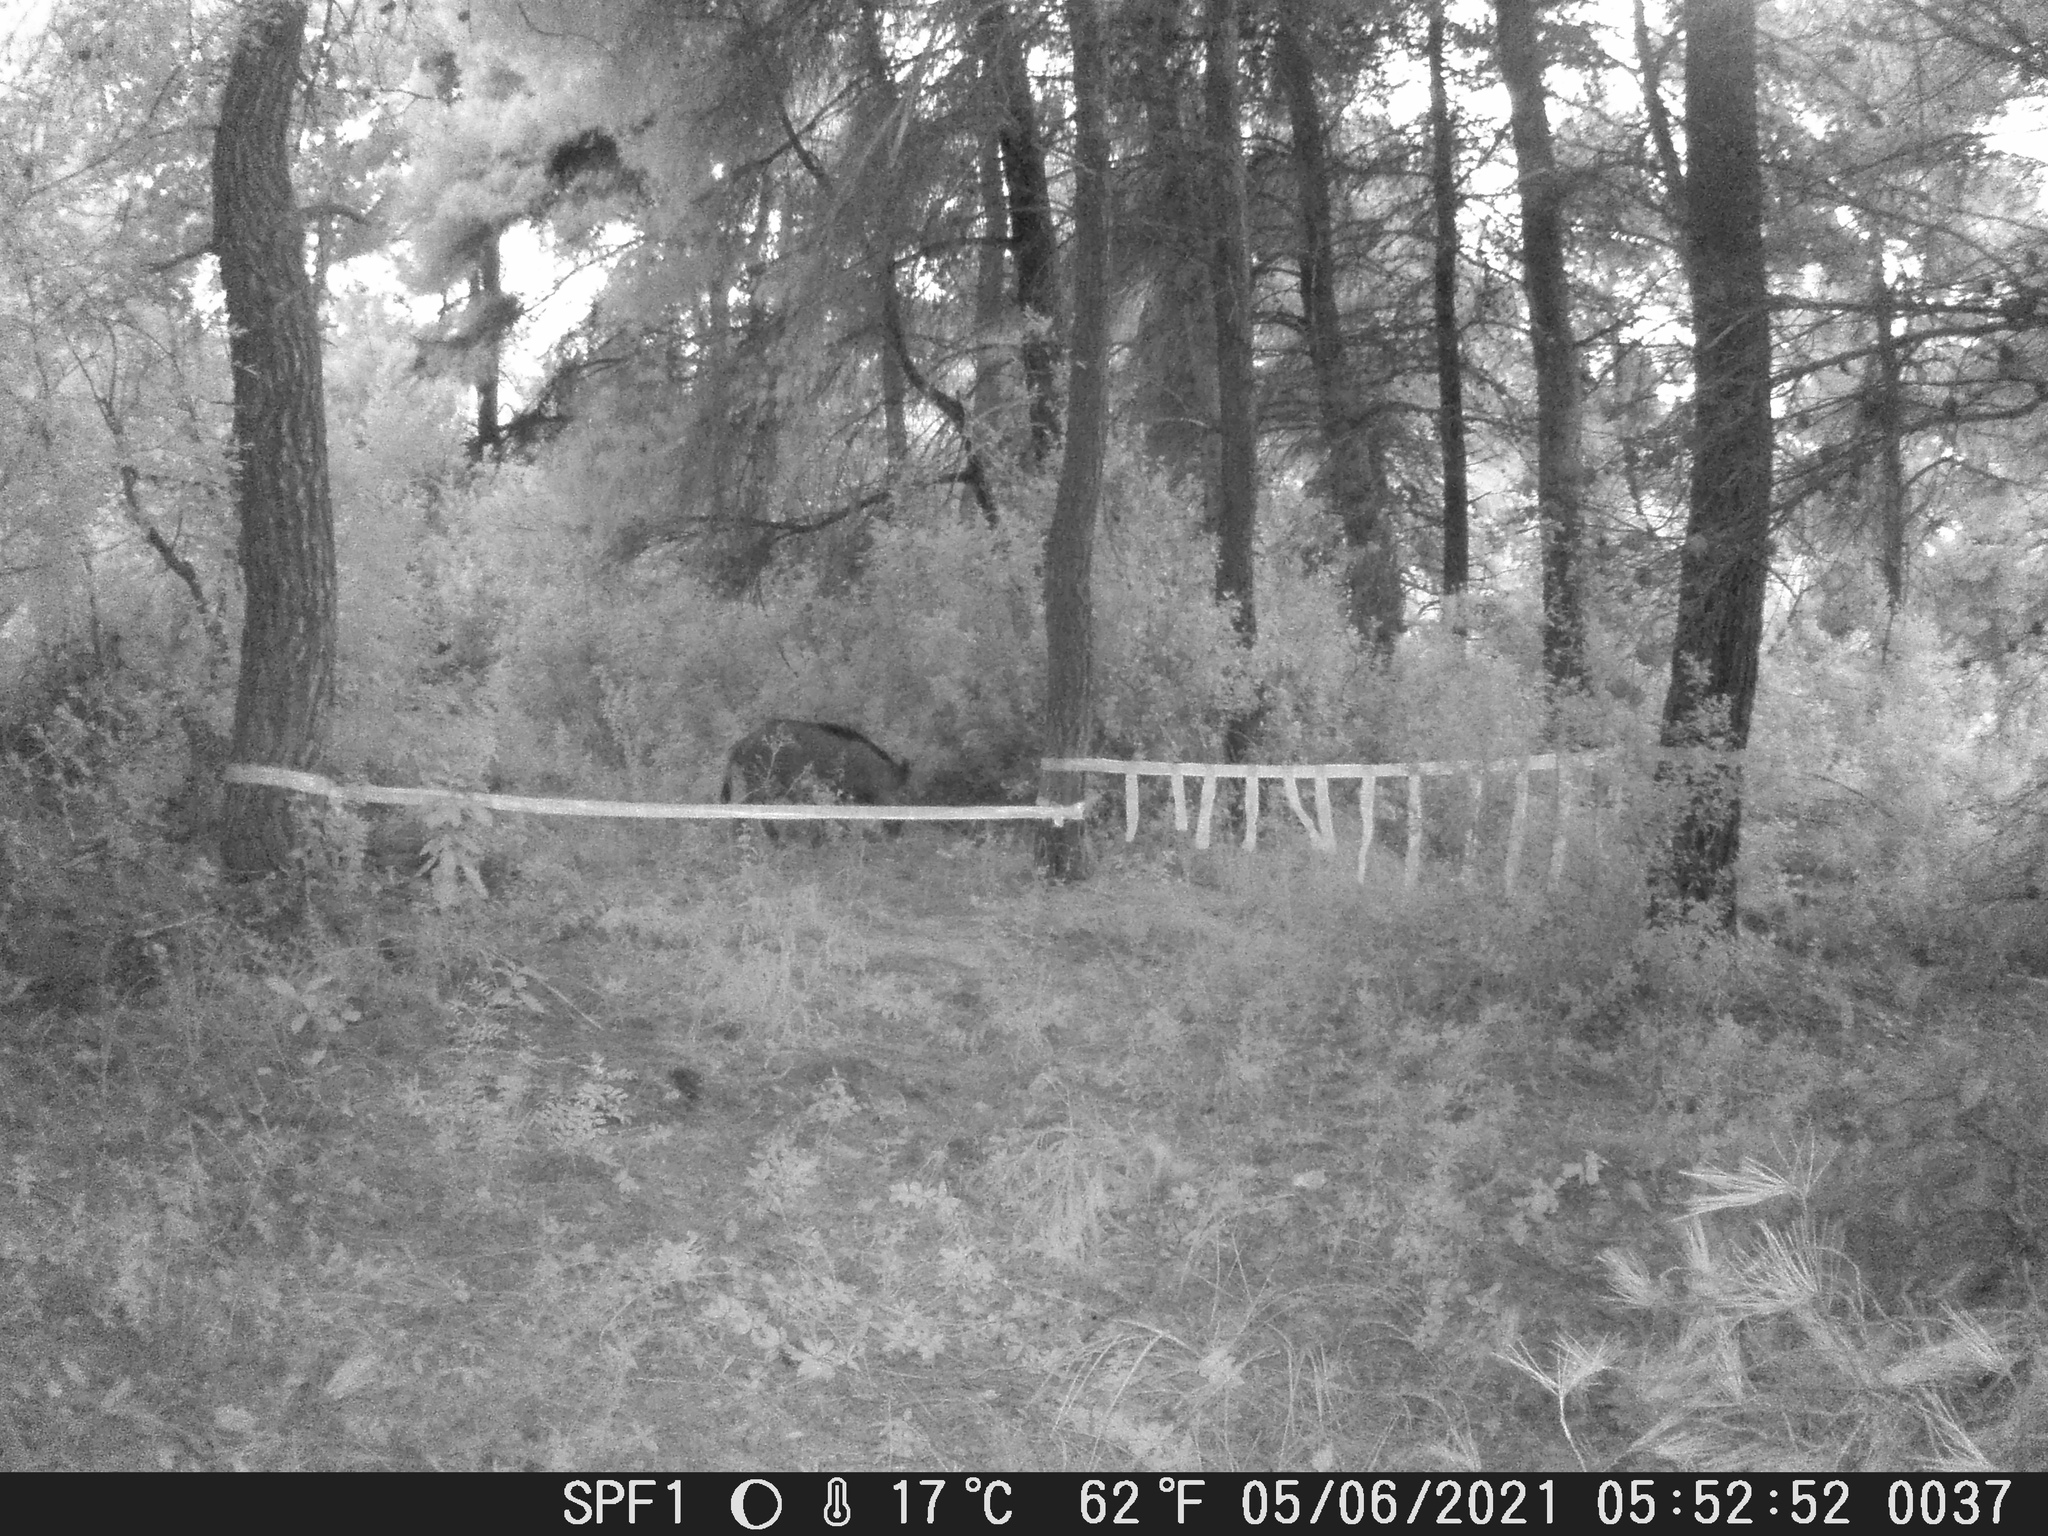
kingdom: Animalia
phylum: Chordata
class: Mammalia
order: Artiodactyla
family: Suidae
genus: Sus
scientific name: Sus scrofa
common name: Wild boar
